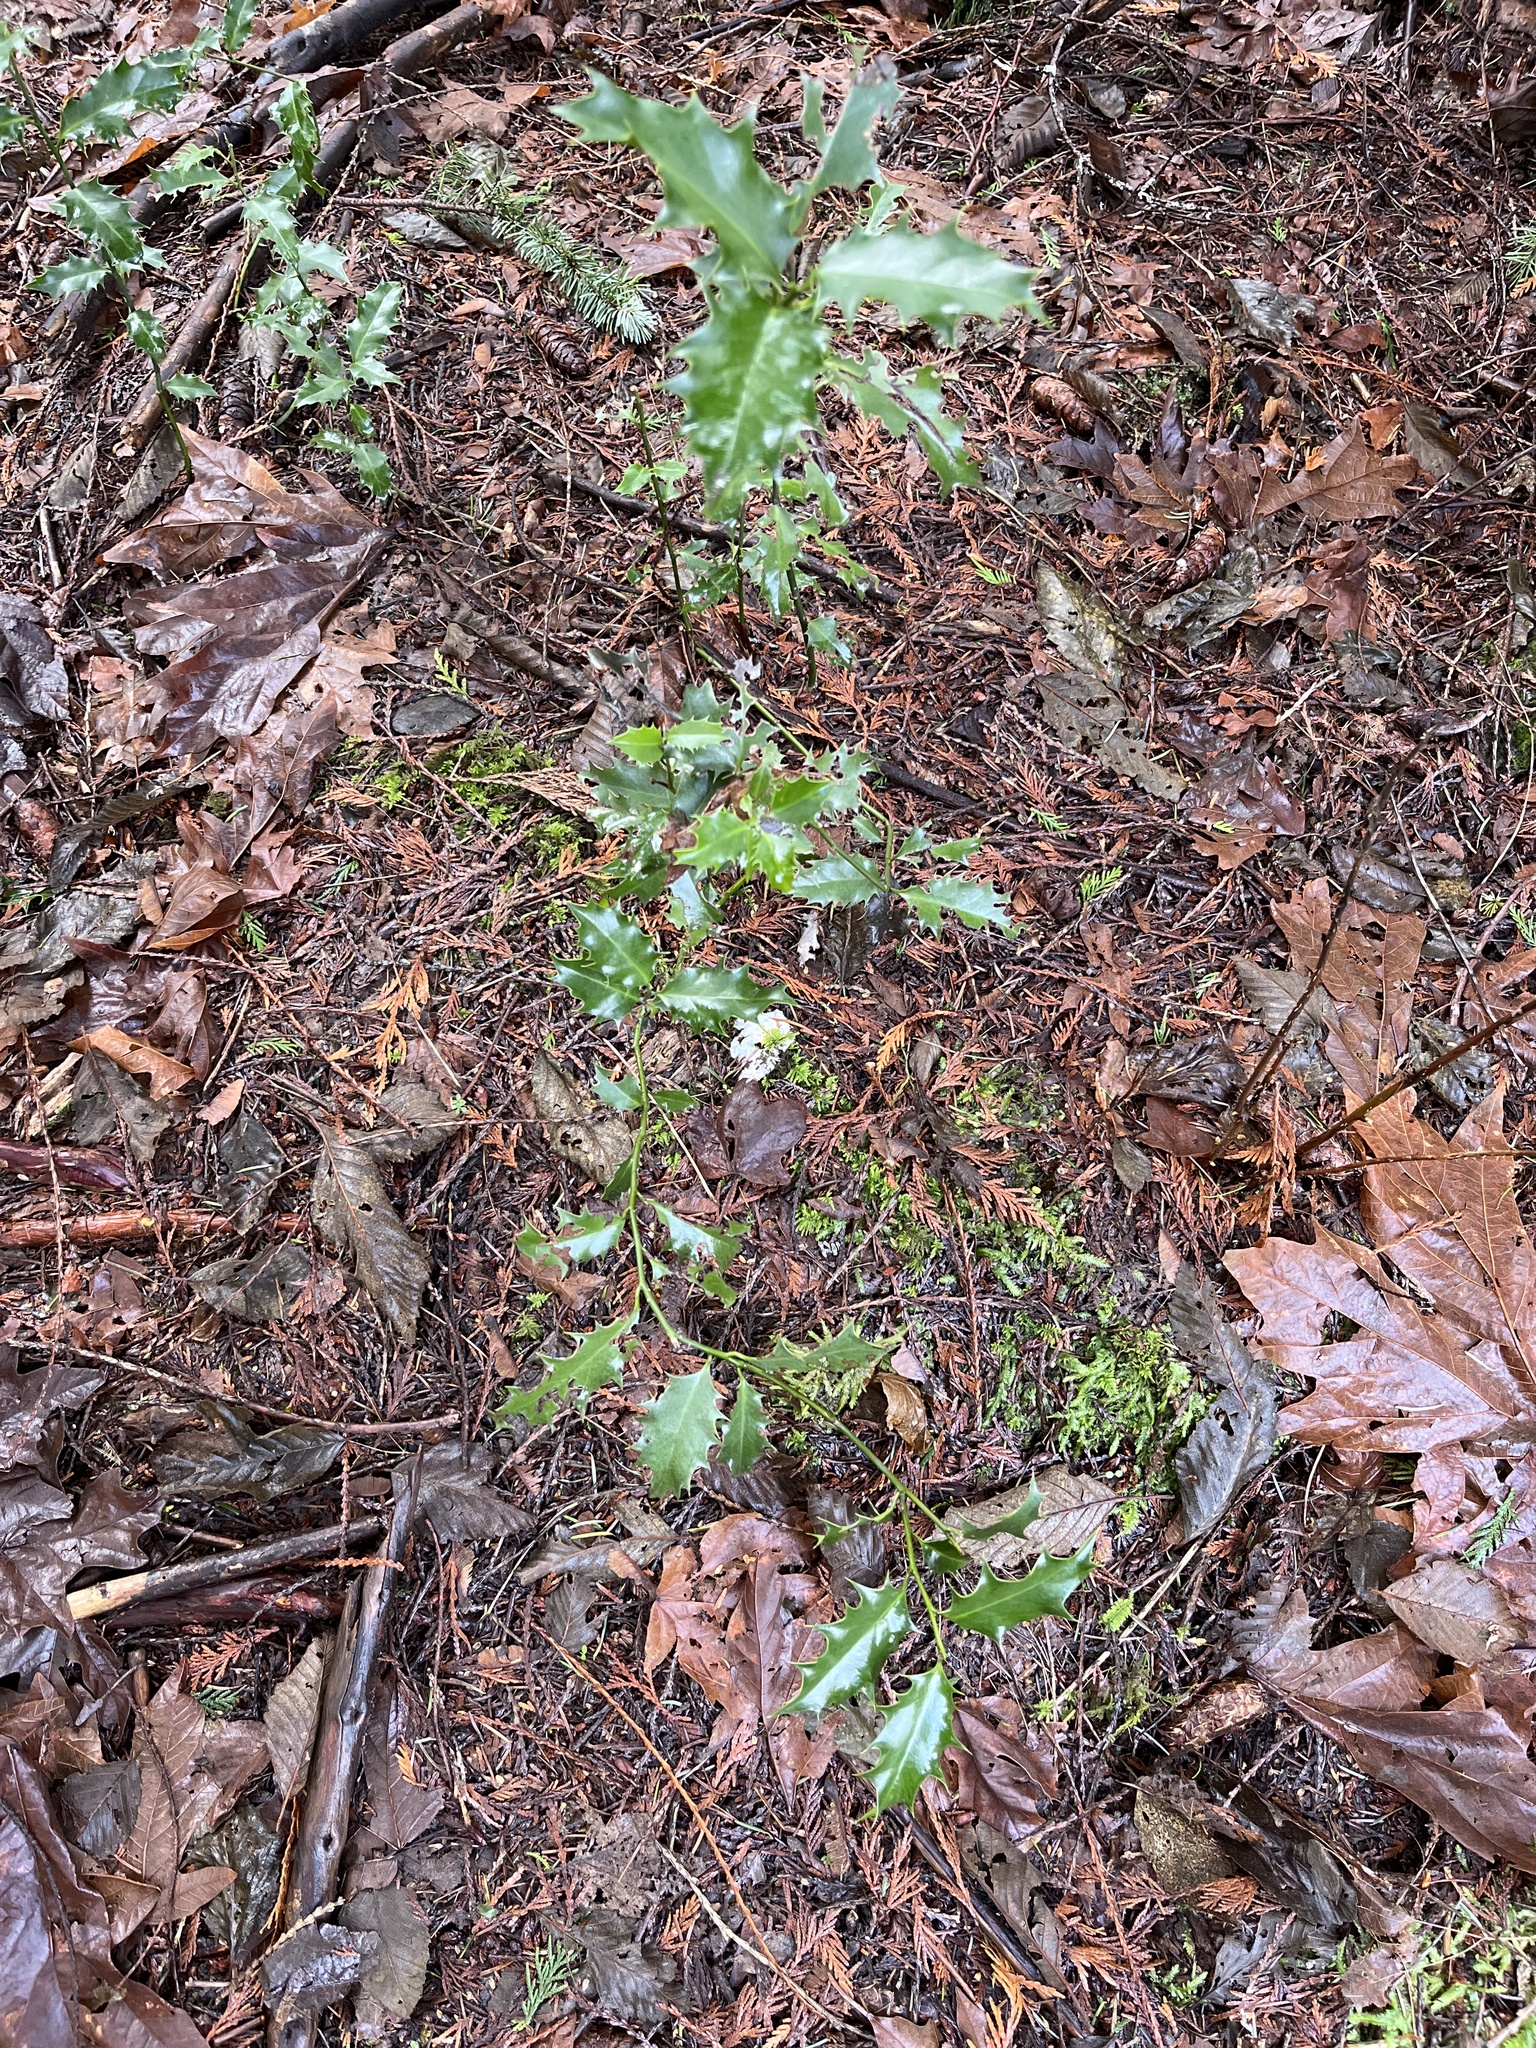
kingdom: Plantae
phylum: Tracheophyta
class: Magnoliopsida
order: Aquifoliales
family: Aquifoliaceae
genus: Ilex
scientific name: Ilex aquifolium
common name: English holly
